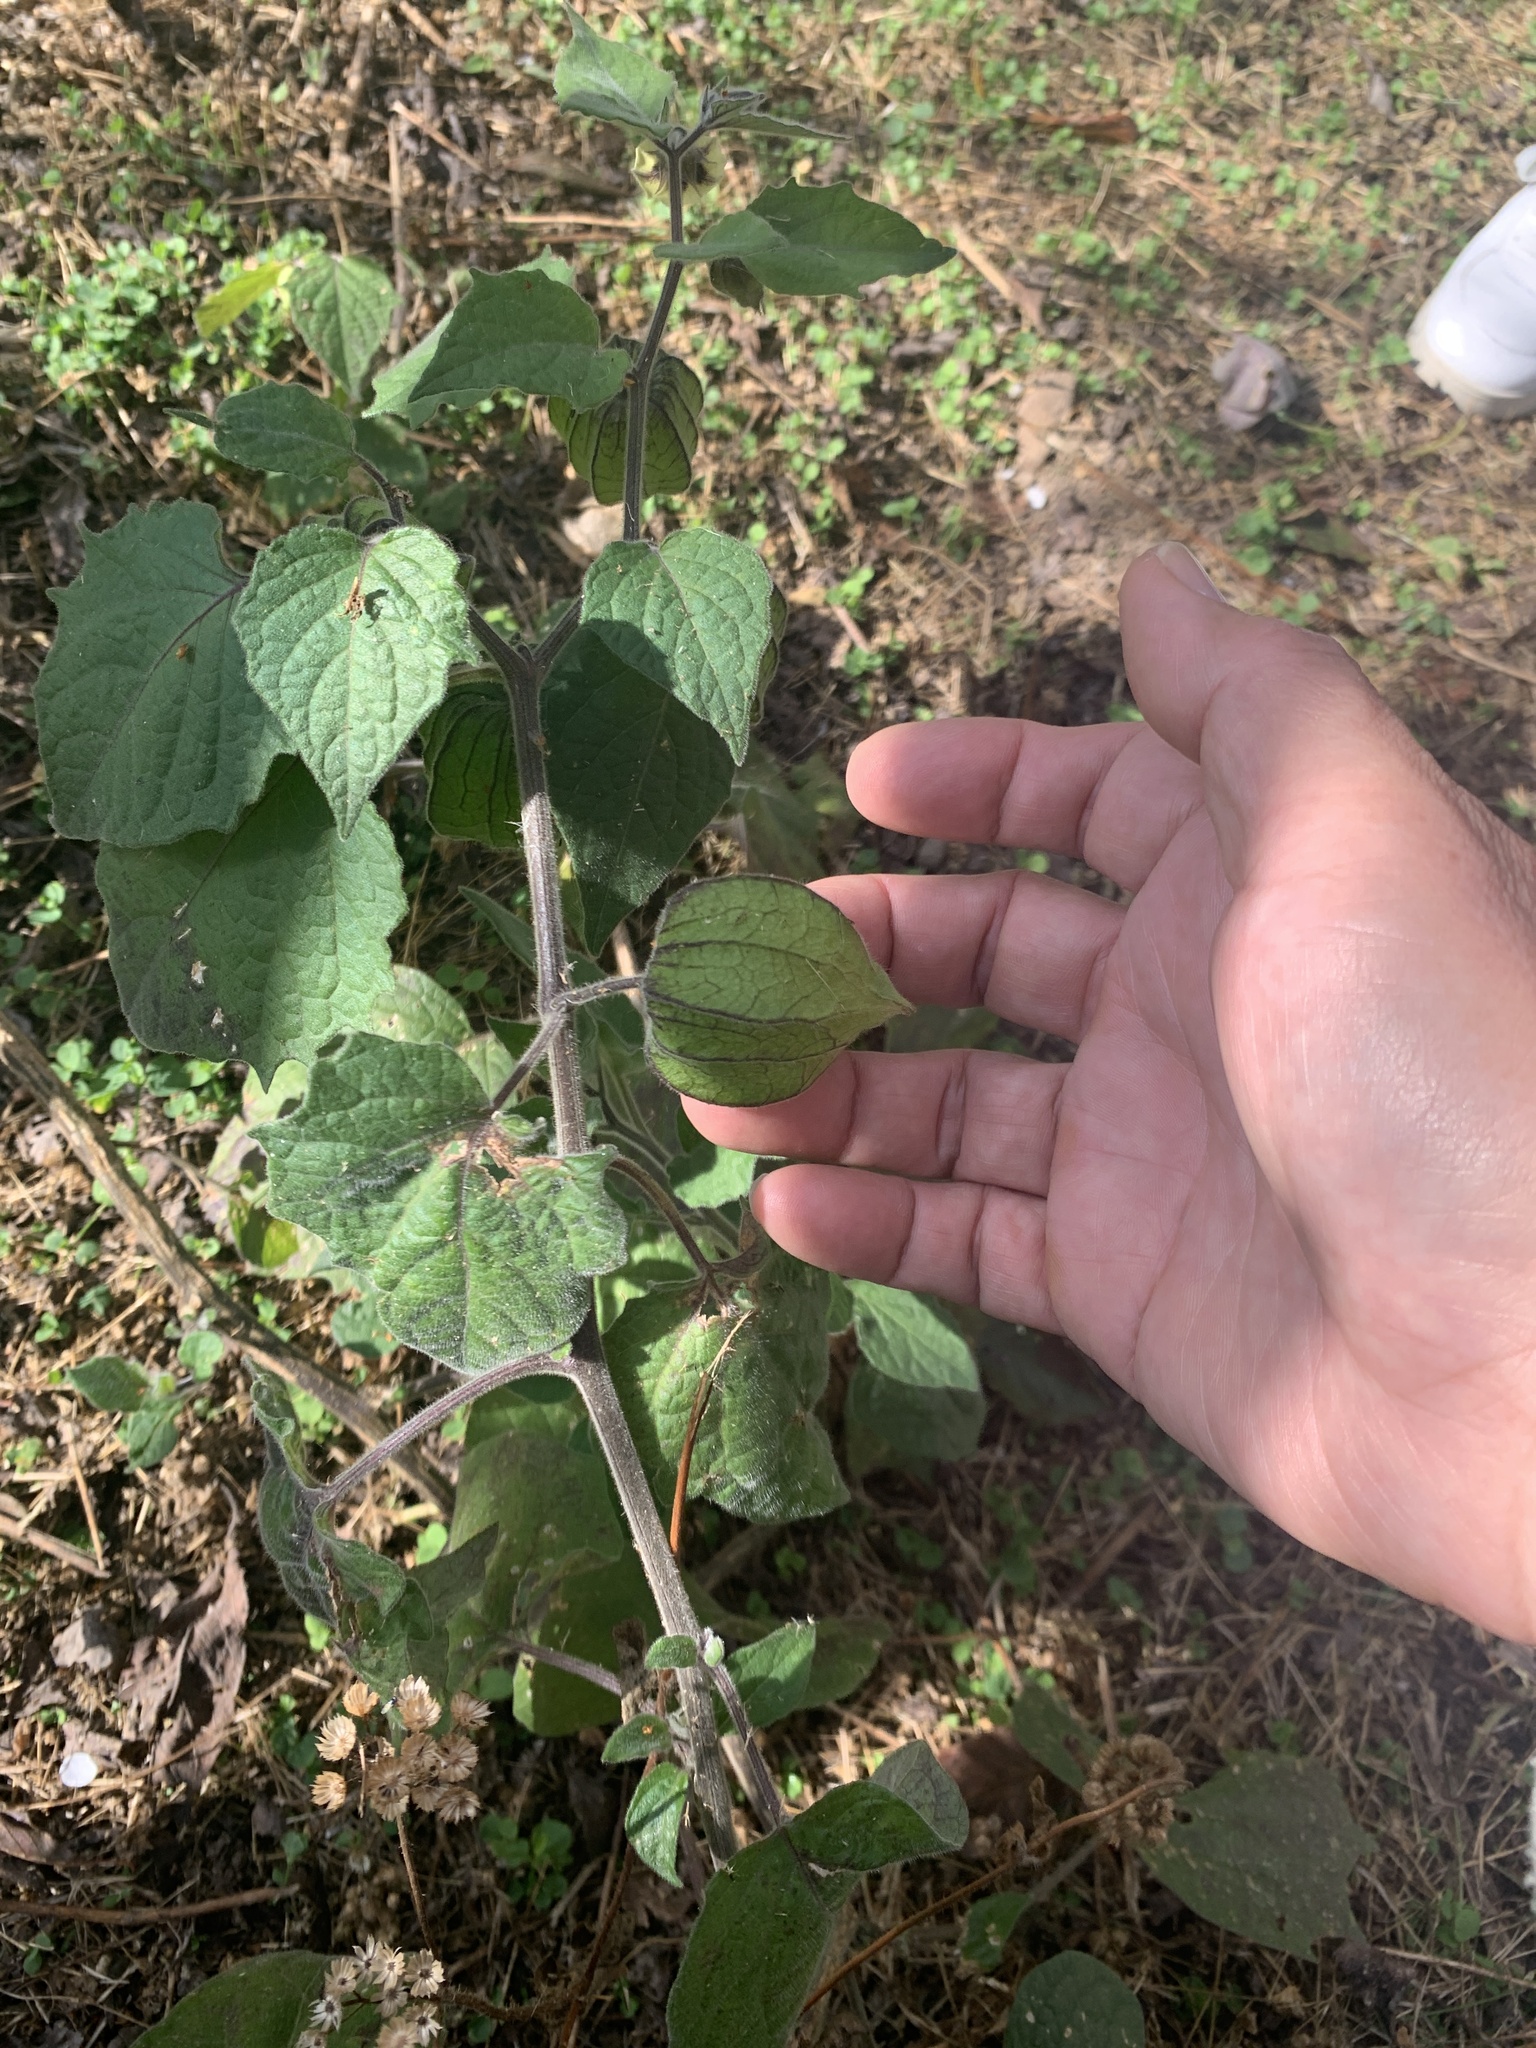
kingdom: Plantae
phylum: Tracheophyta
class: Magnoliopsida
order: Solanales
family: Solanaceae
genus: Physalis
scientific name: Physalis peruviana
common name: Cape-gooseberry
